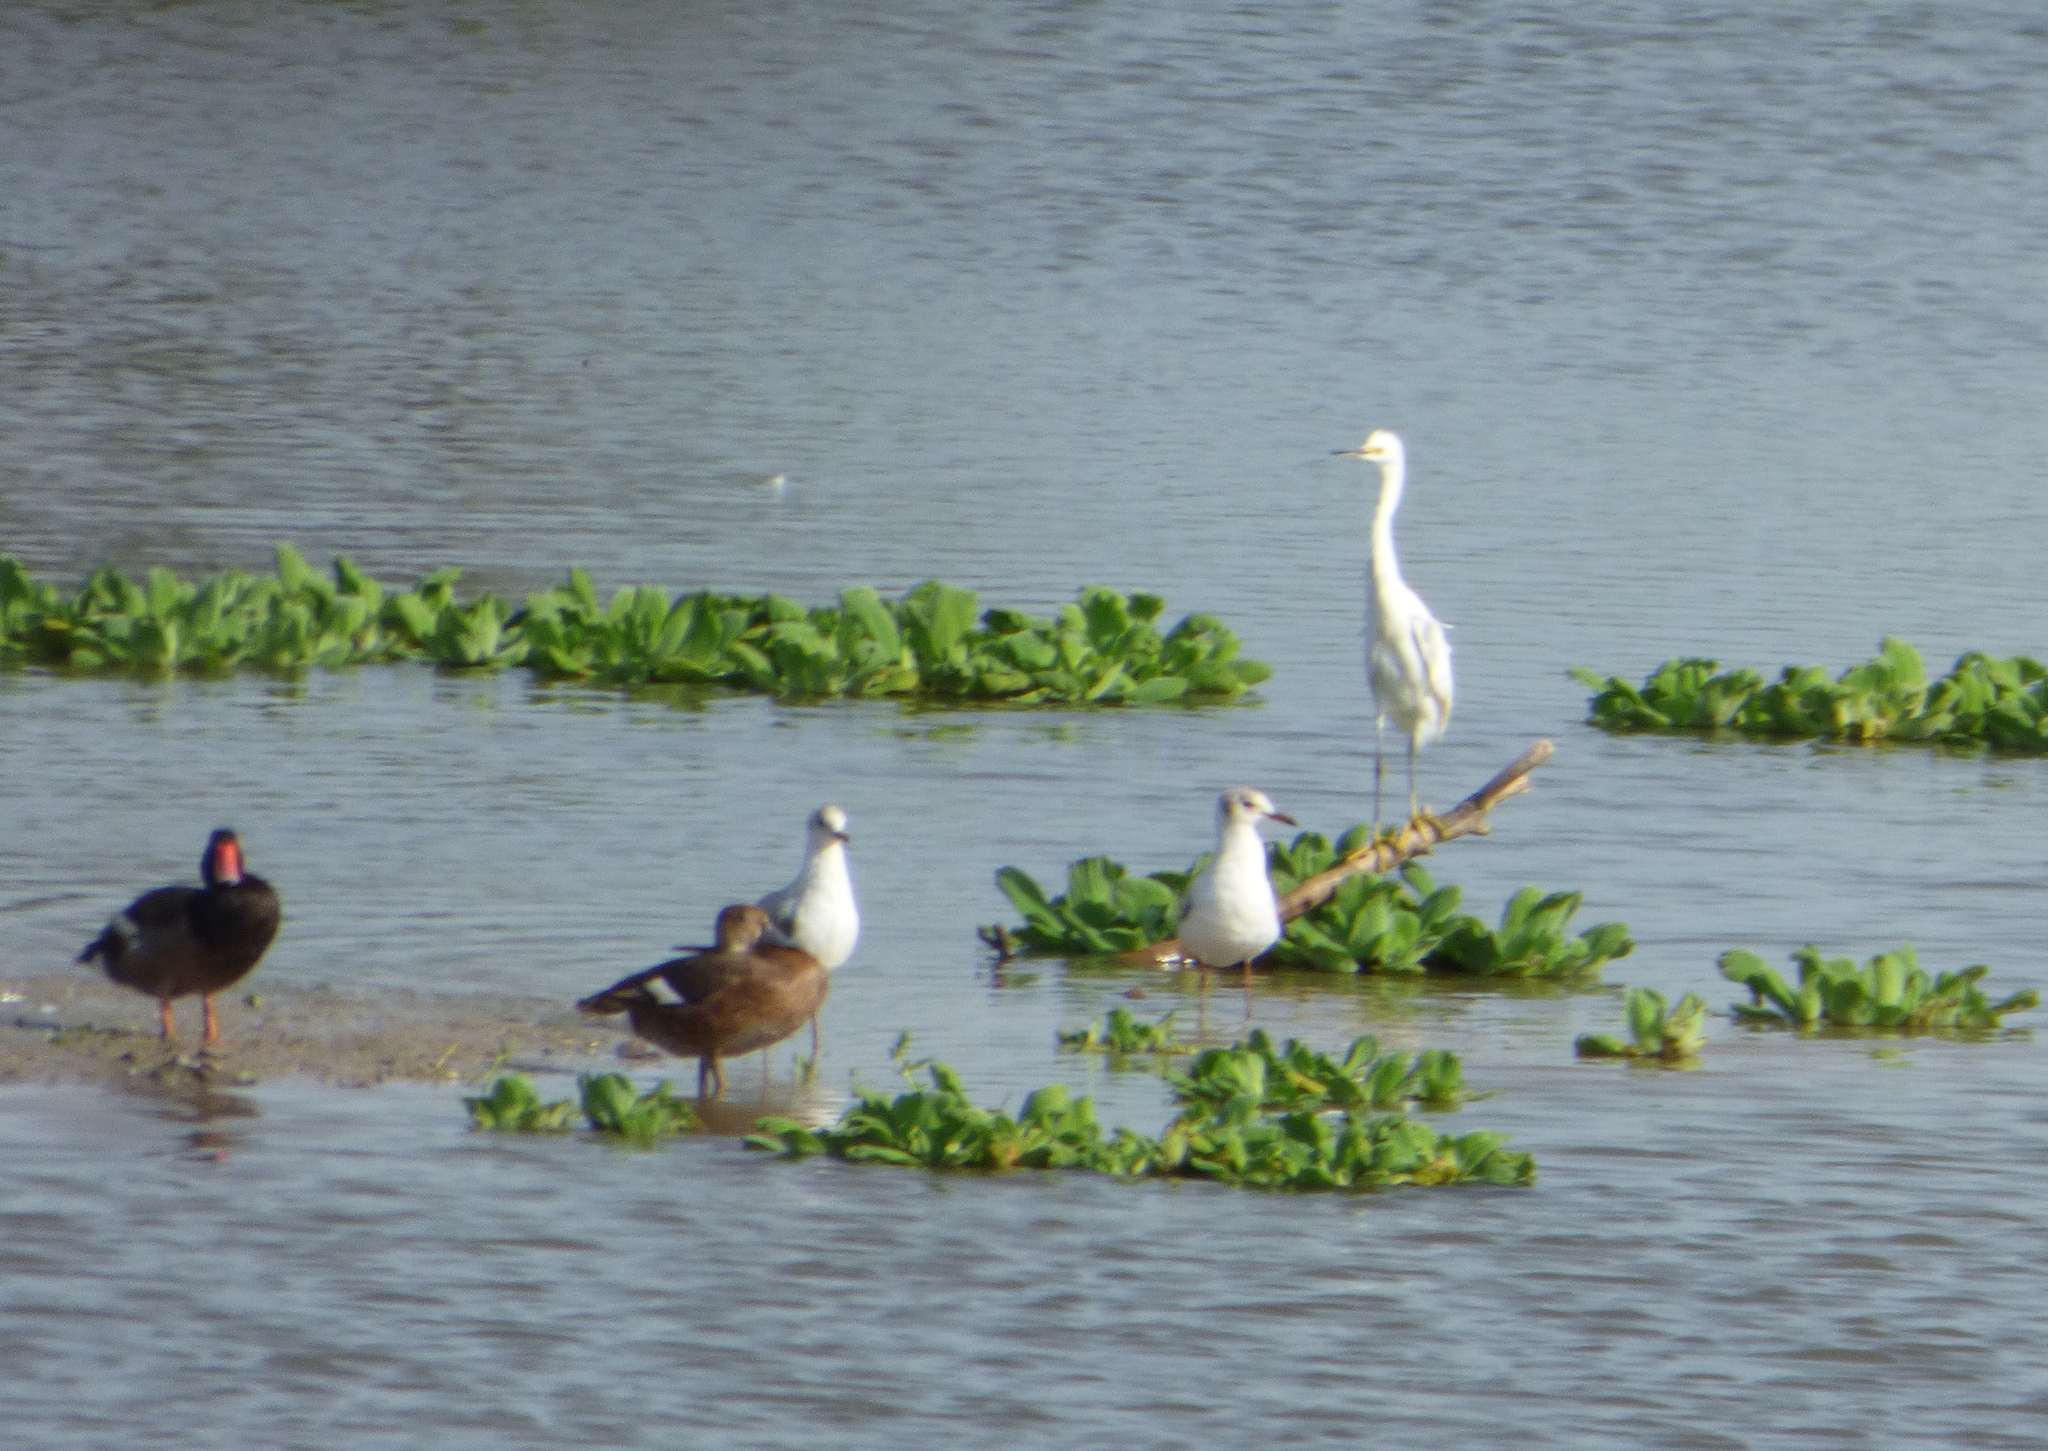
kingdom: Animalia
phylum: Chordata
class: Aves
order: Pelecaniformes
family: Ardeidae
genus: Egretta
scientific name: Egretta thula
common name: Snowy egret
